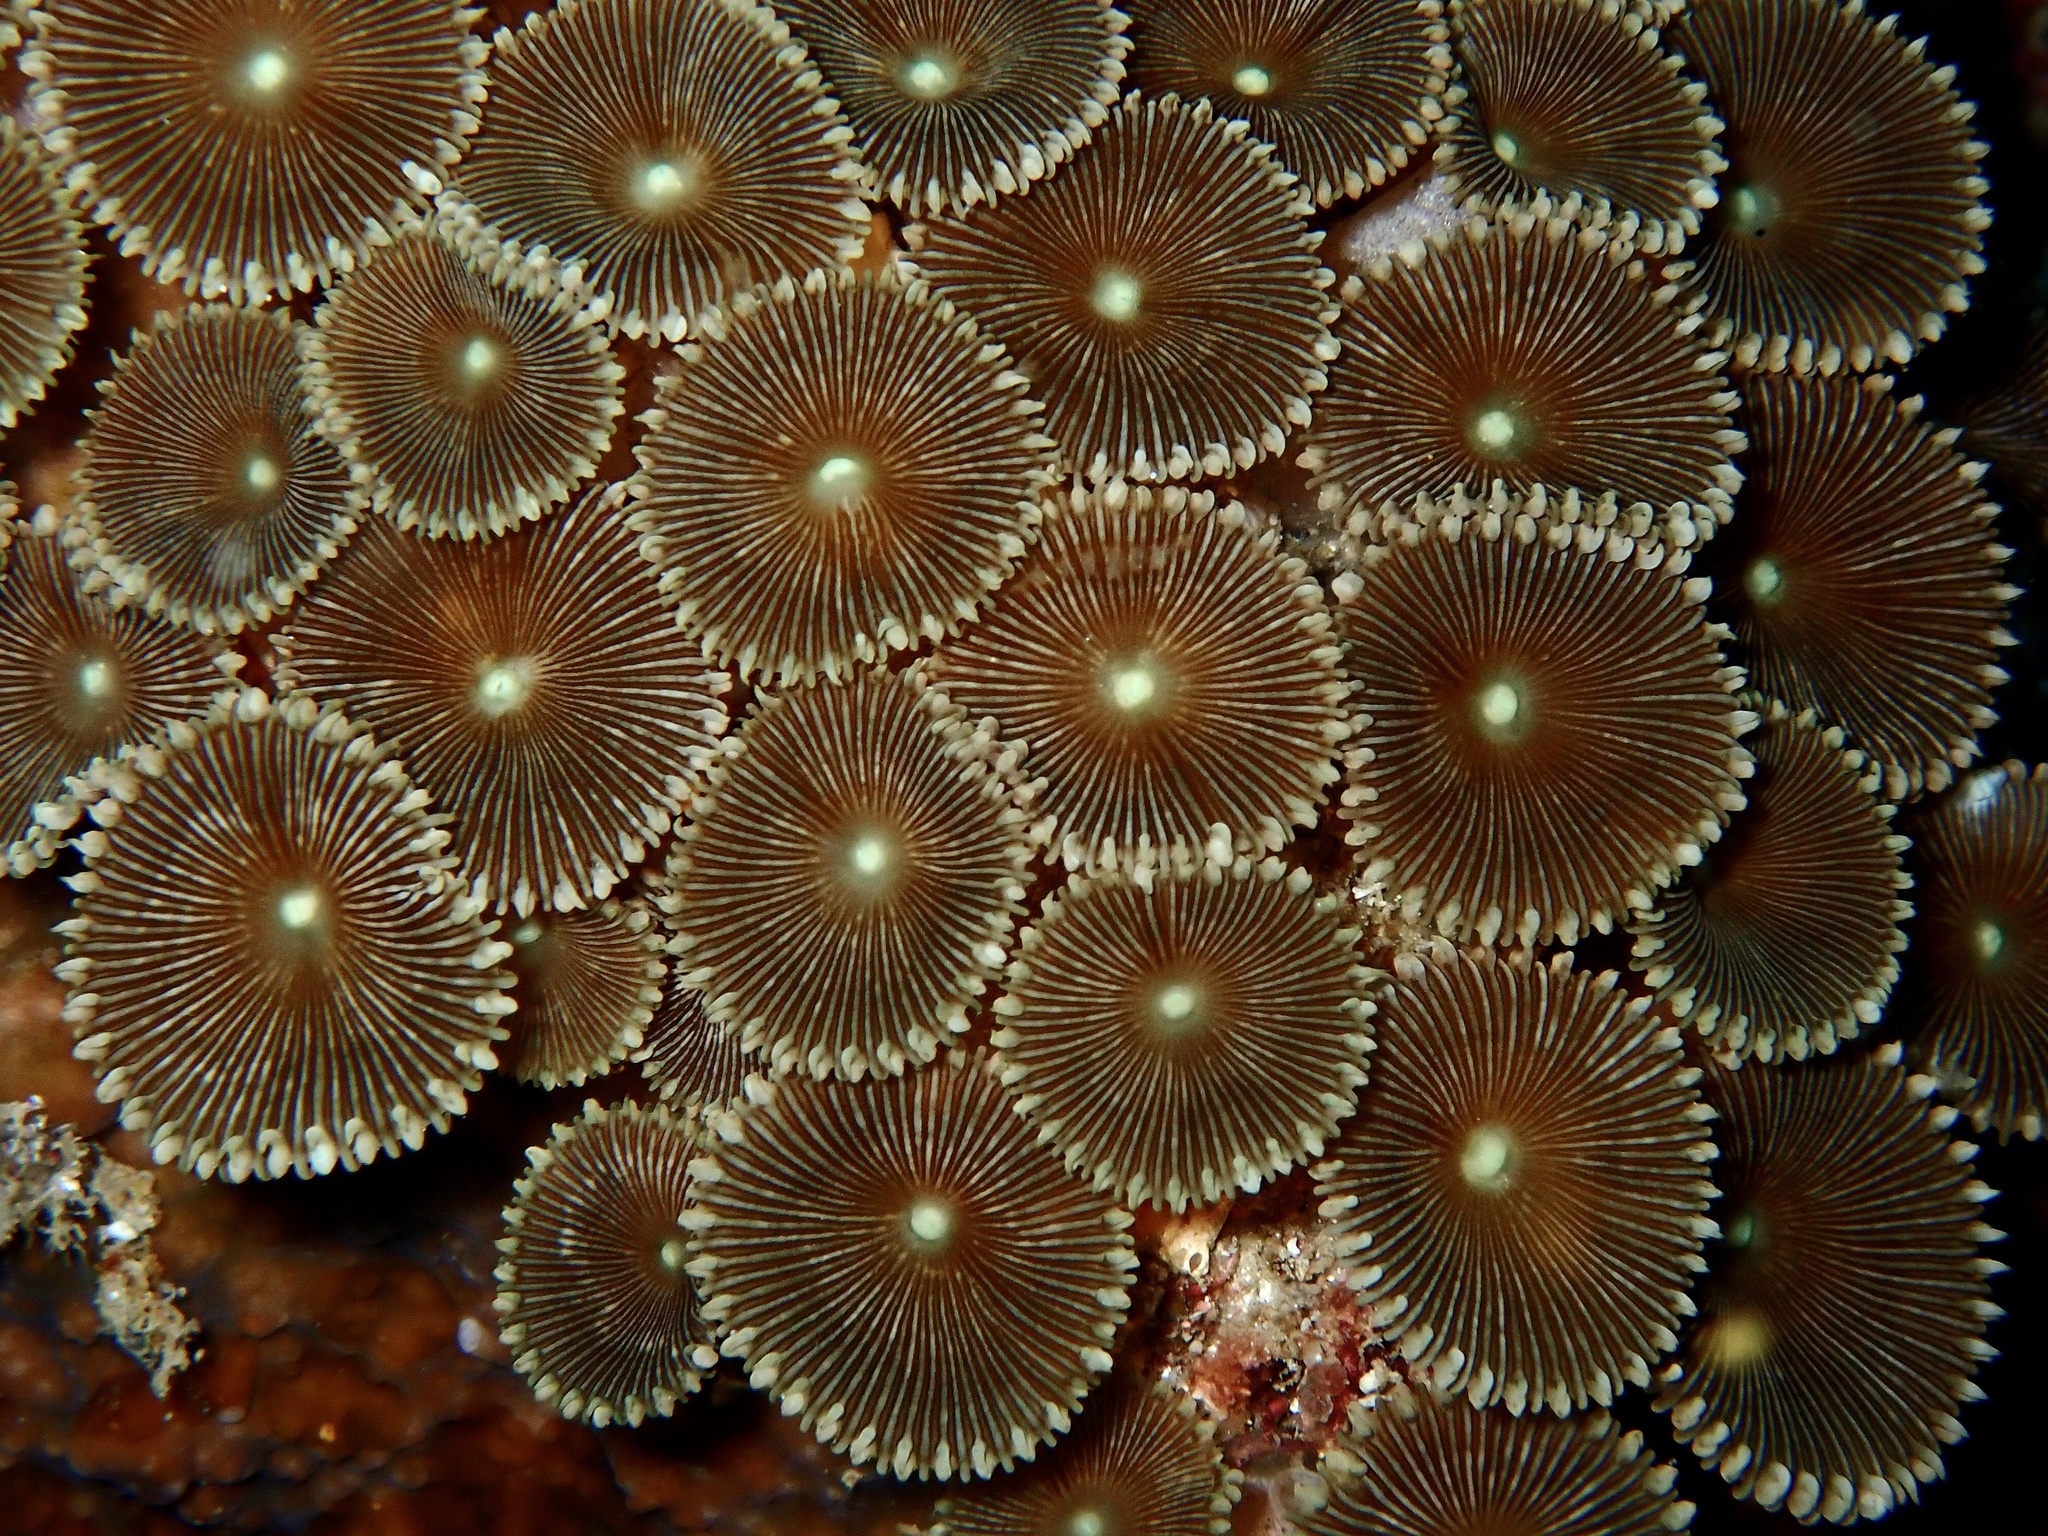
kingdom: Animalia
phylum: Cnidaria
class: Anthozoa
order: Zoantharia
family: Sphenopidae
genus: Palythoa
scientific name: Palythoa heliodiscus
